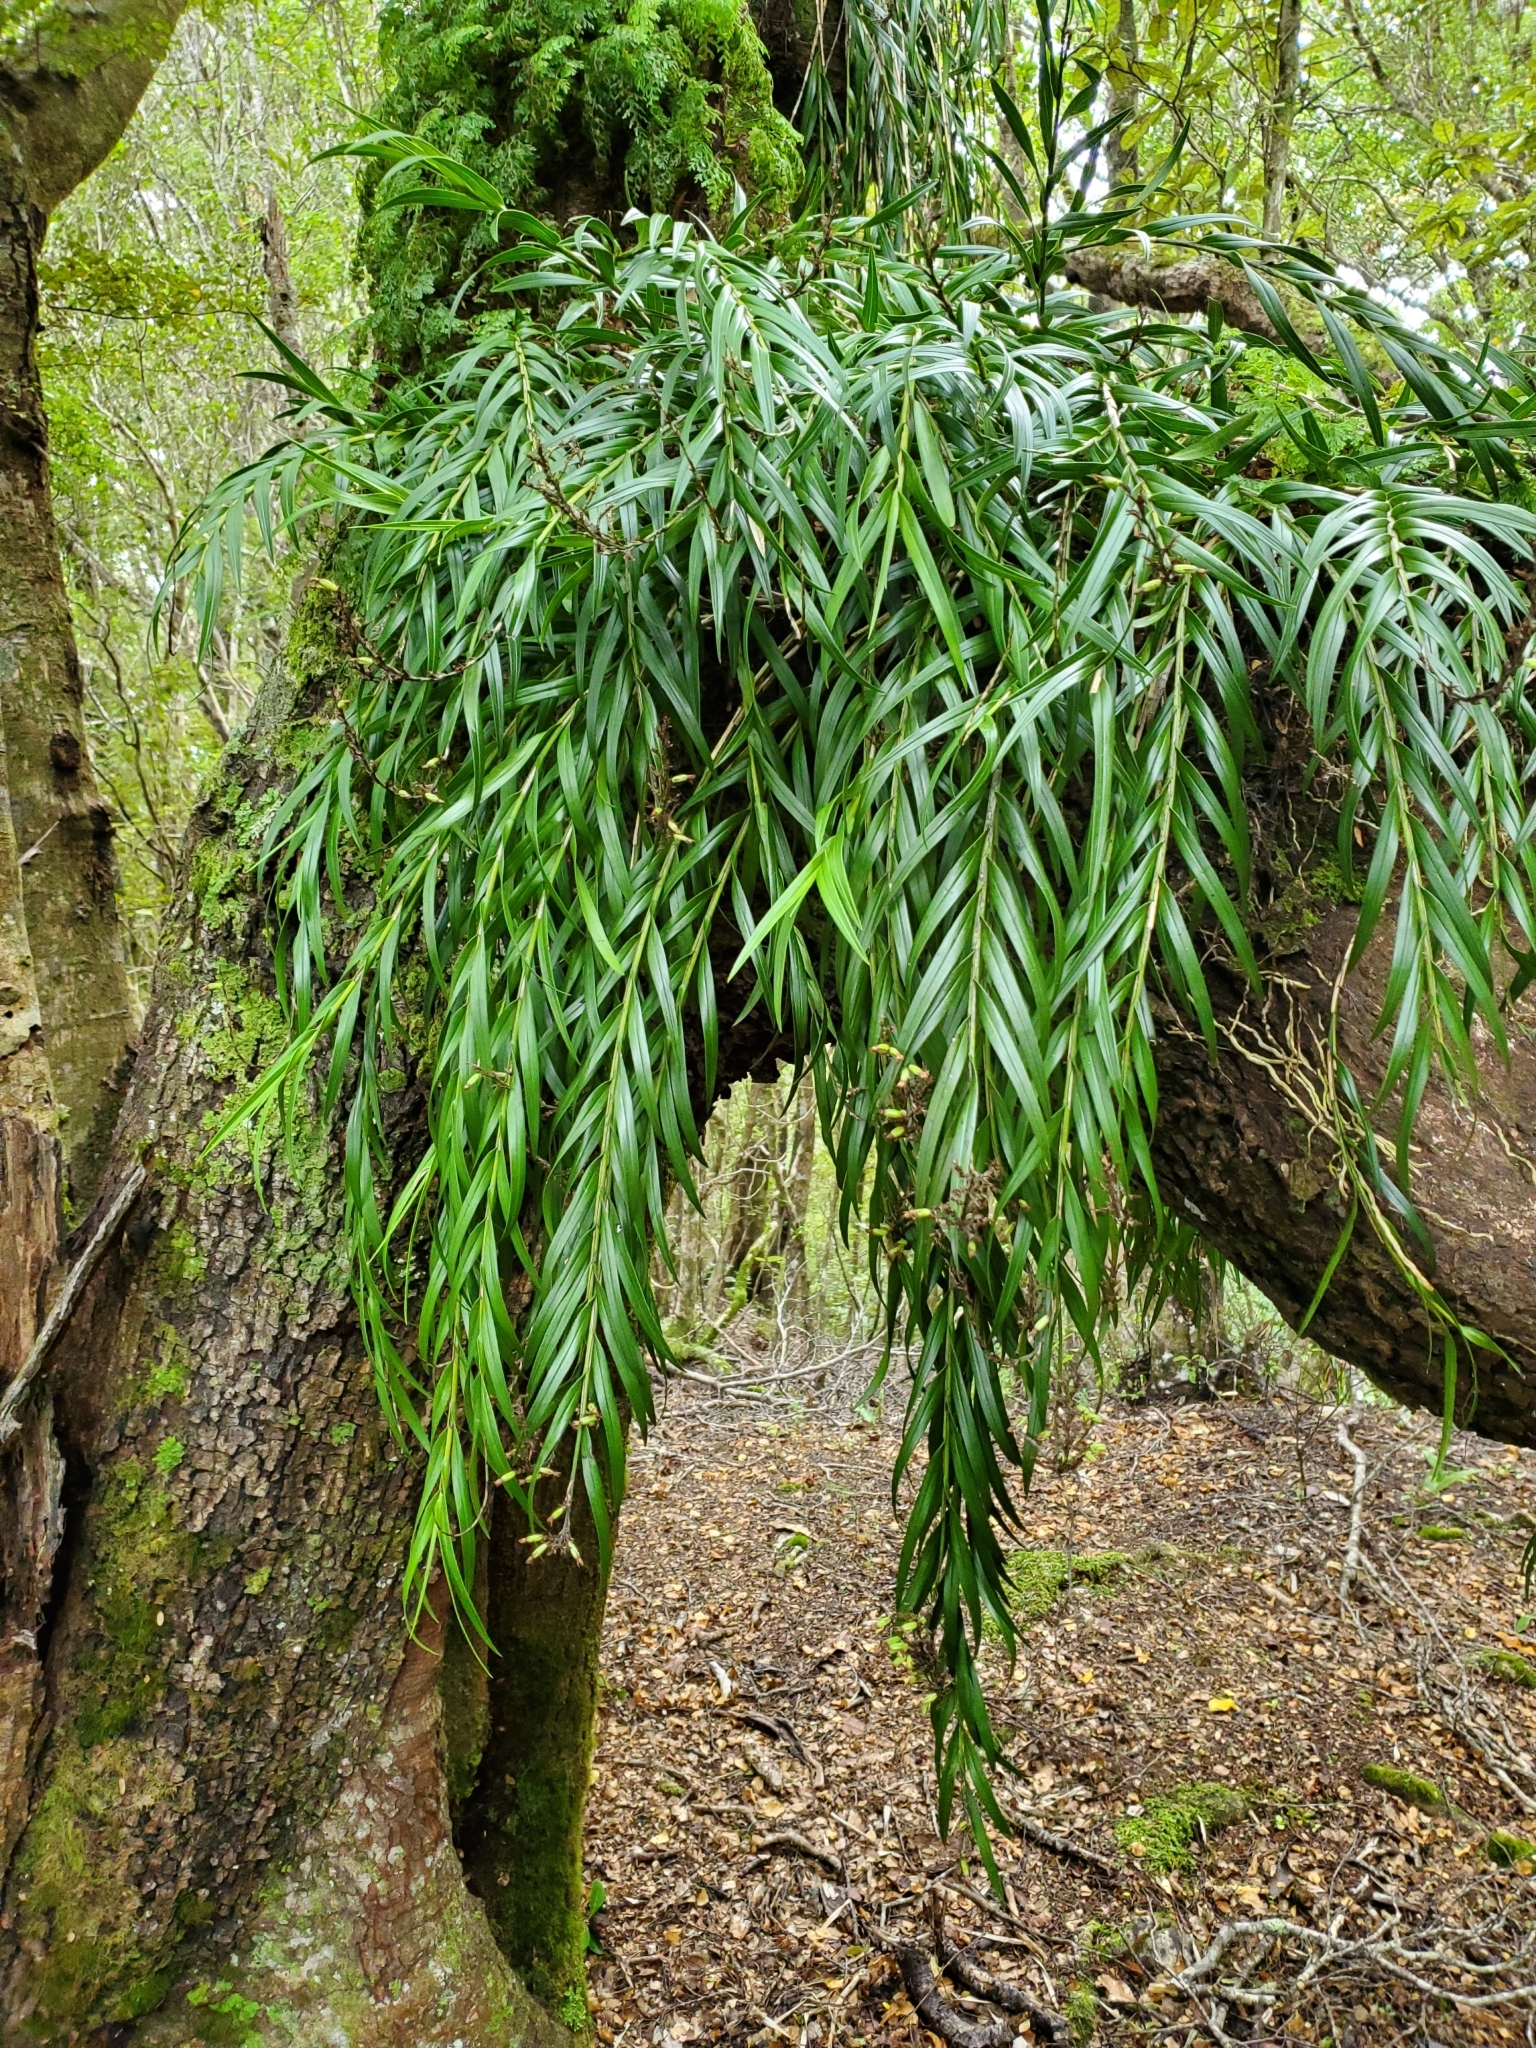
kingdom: Plantae
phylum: Tracheophyta
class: Liliopsida
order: Asparagales
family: Orchidaceae
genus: Earina
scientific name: Earina autumnalis
